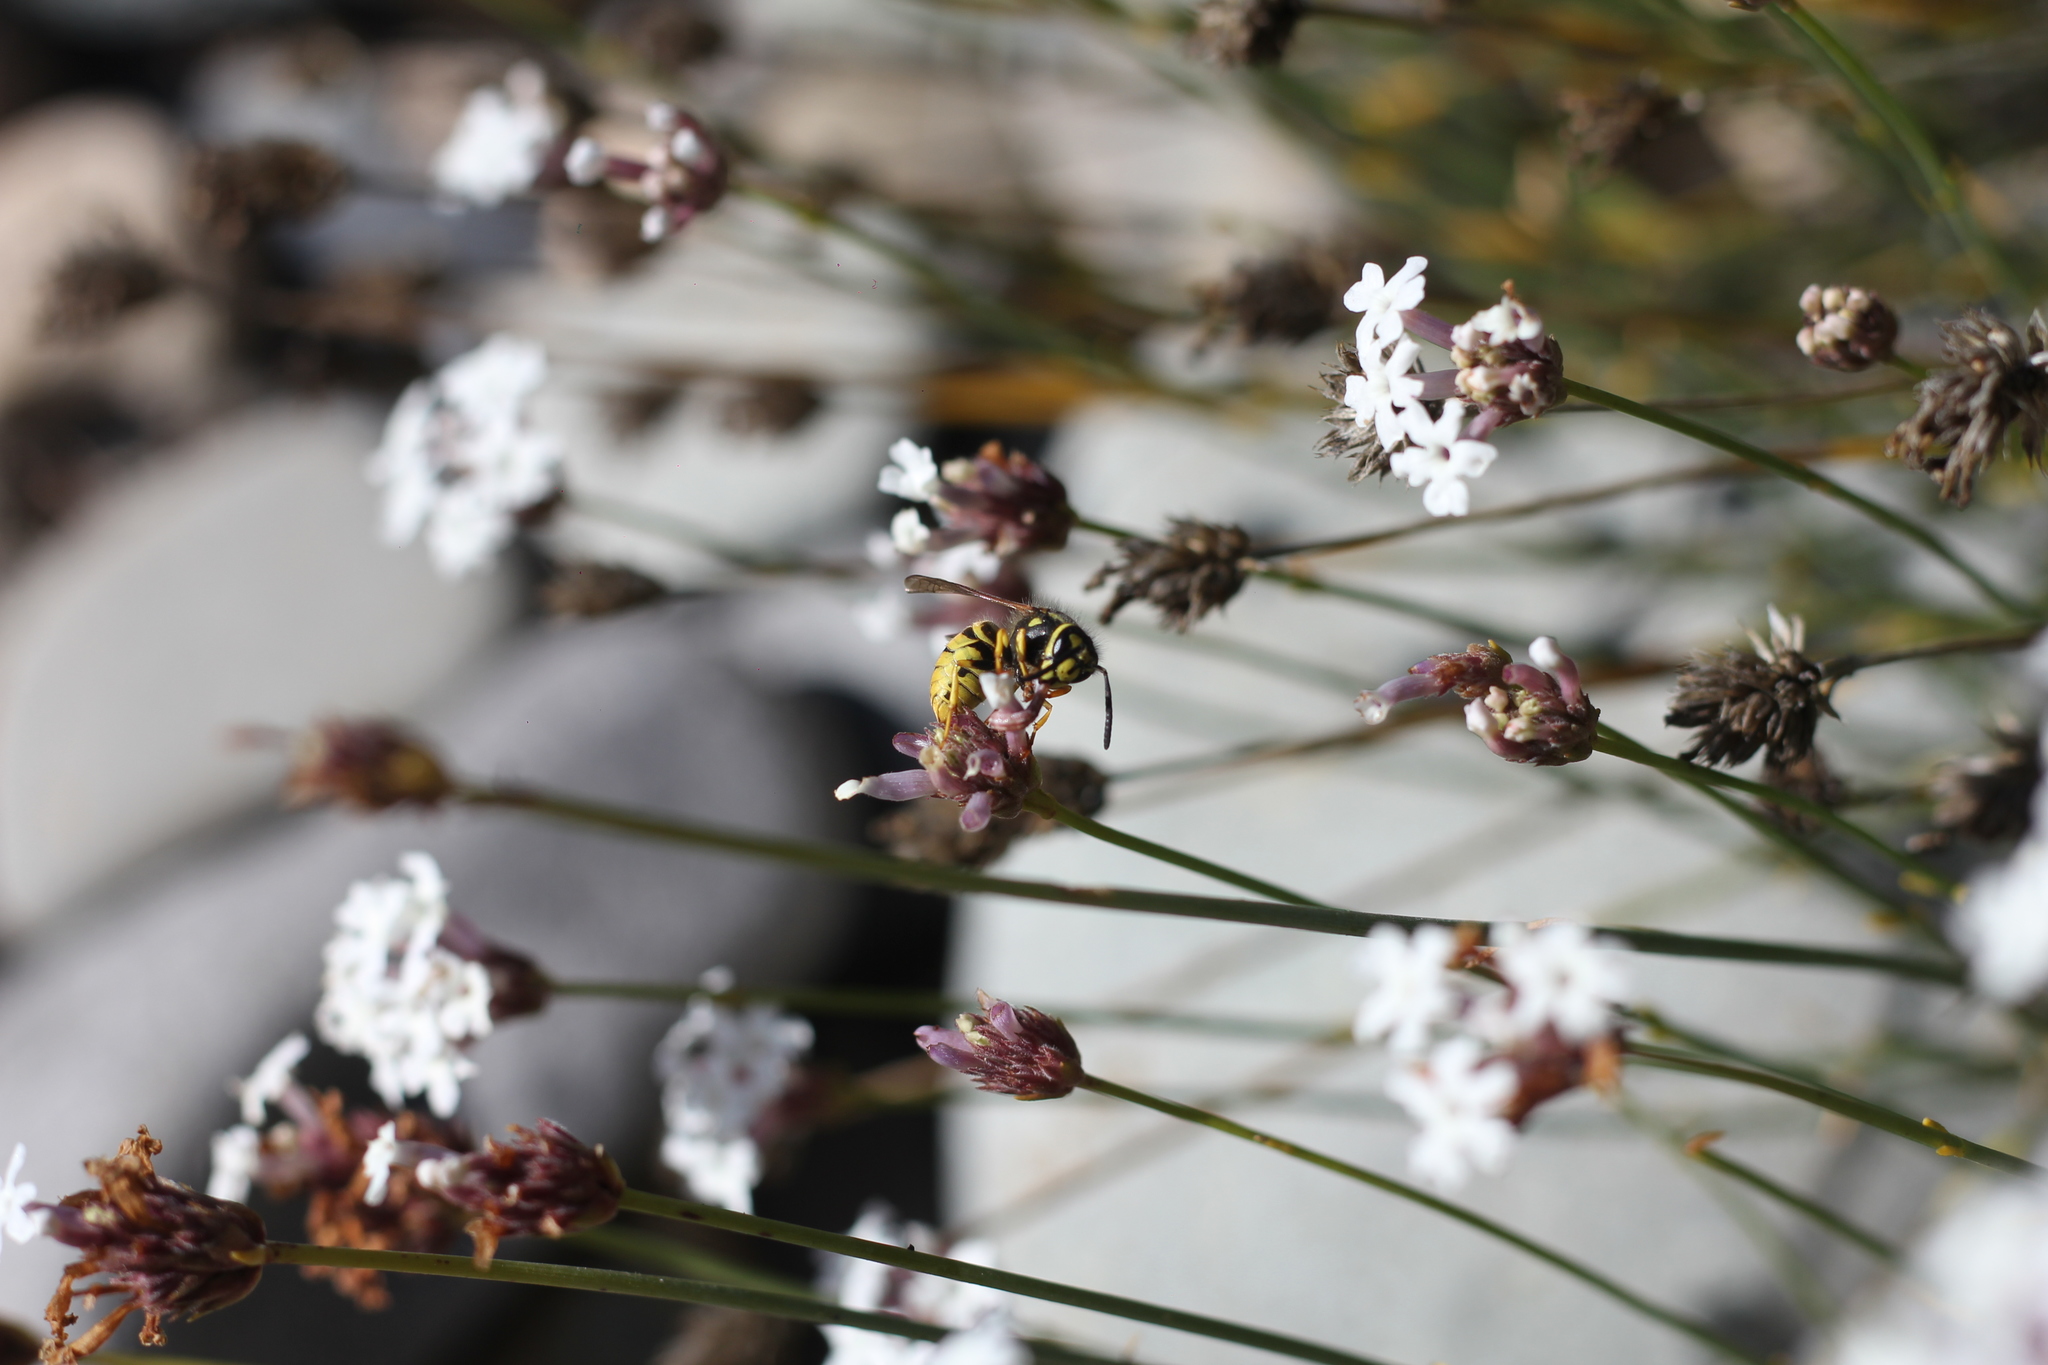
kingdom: Animalia
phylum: Arthropoda
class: Insecta
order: Hymenoptera
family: Vespidae
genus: Vespula
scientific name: Vespula germanica
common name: German wasp
